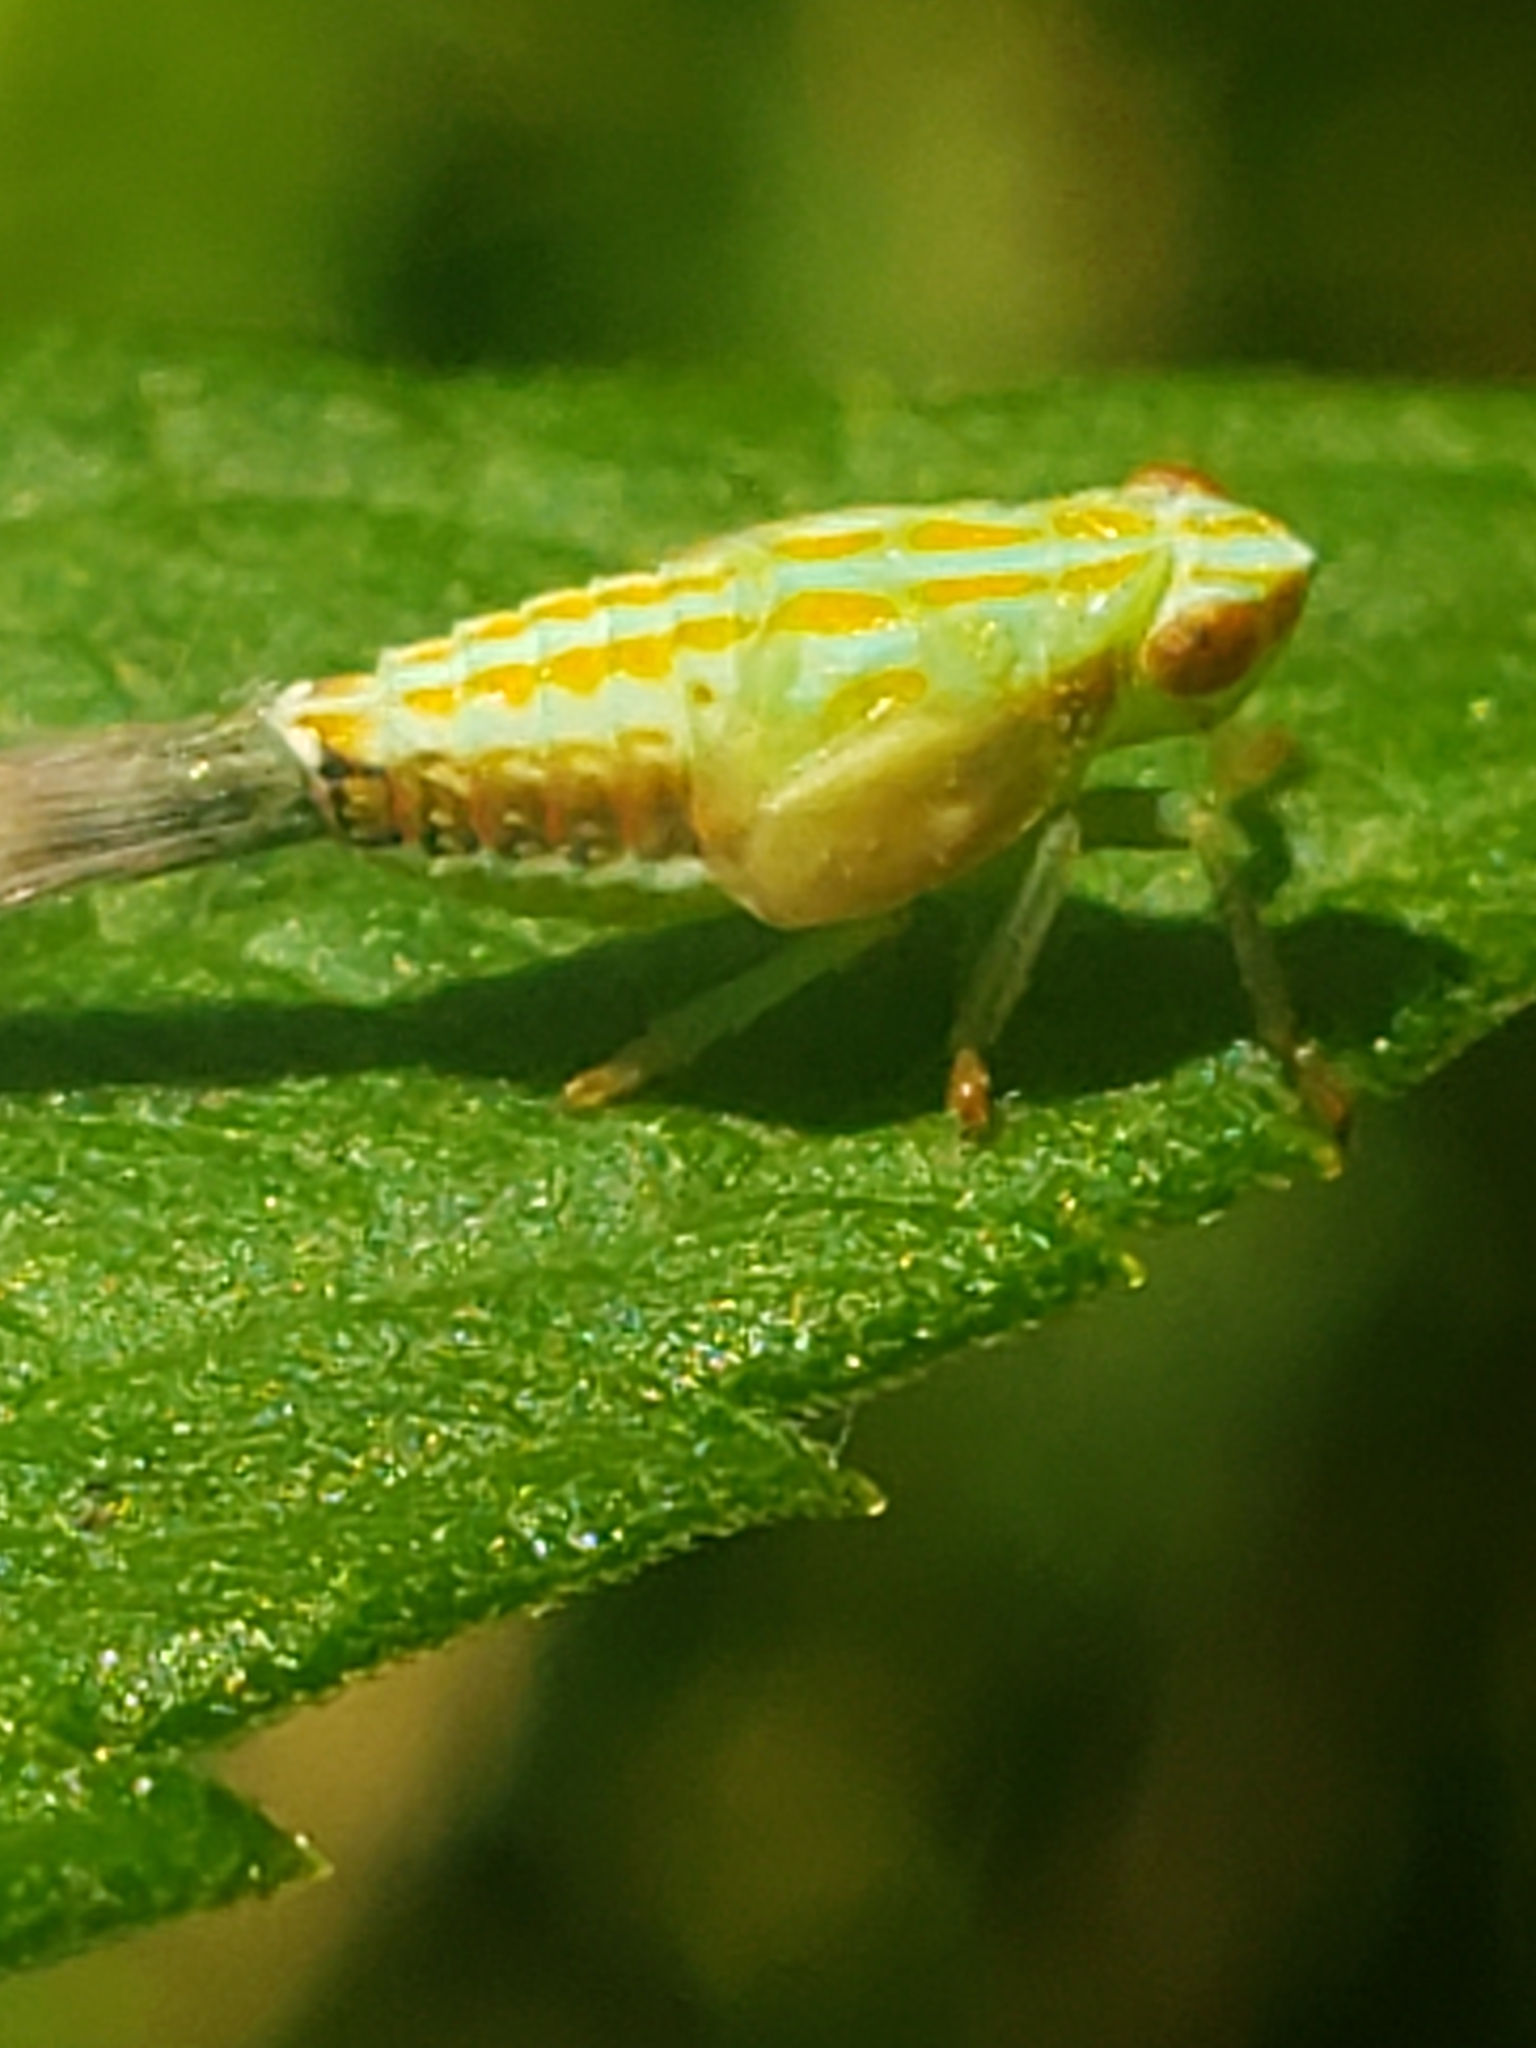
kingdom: Animalia
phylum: Arthropoda
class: Insecta
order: Hemiptera
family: Issidae
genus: Thionia
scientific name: Thionia bullata
